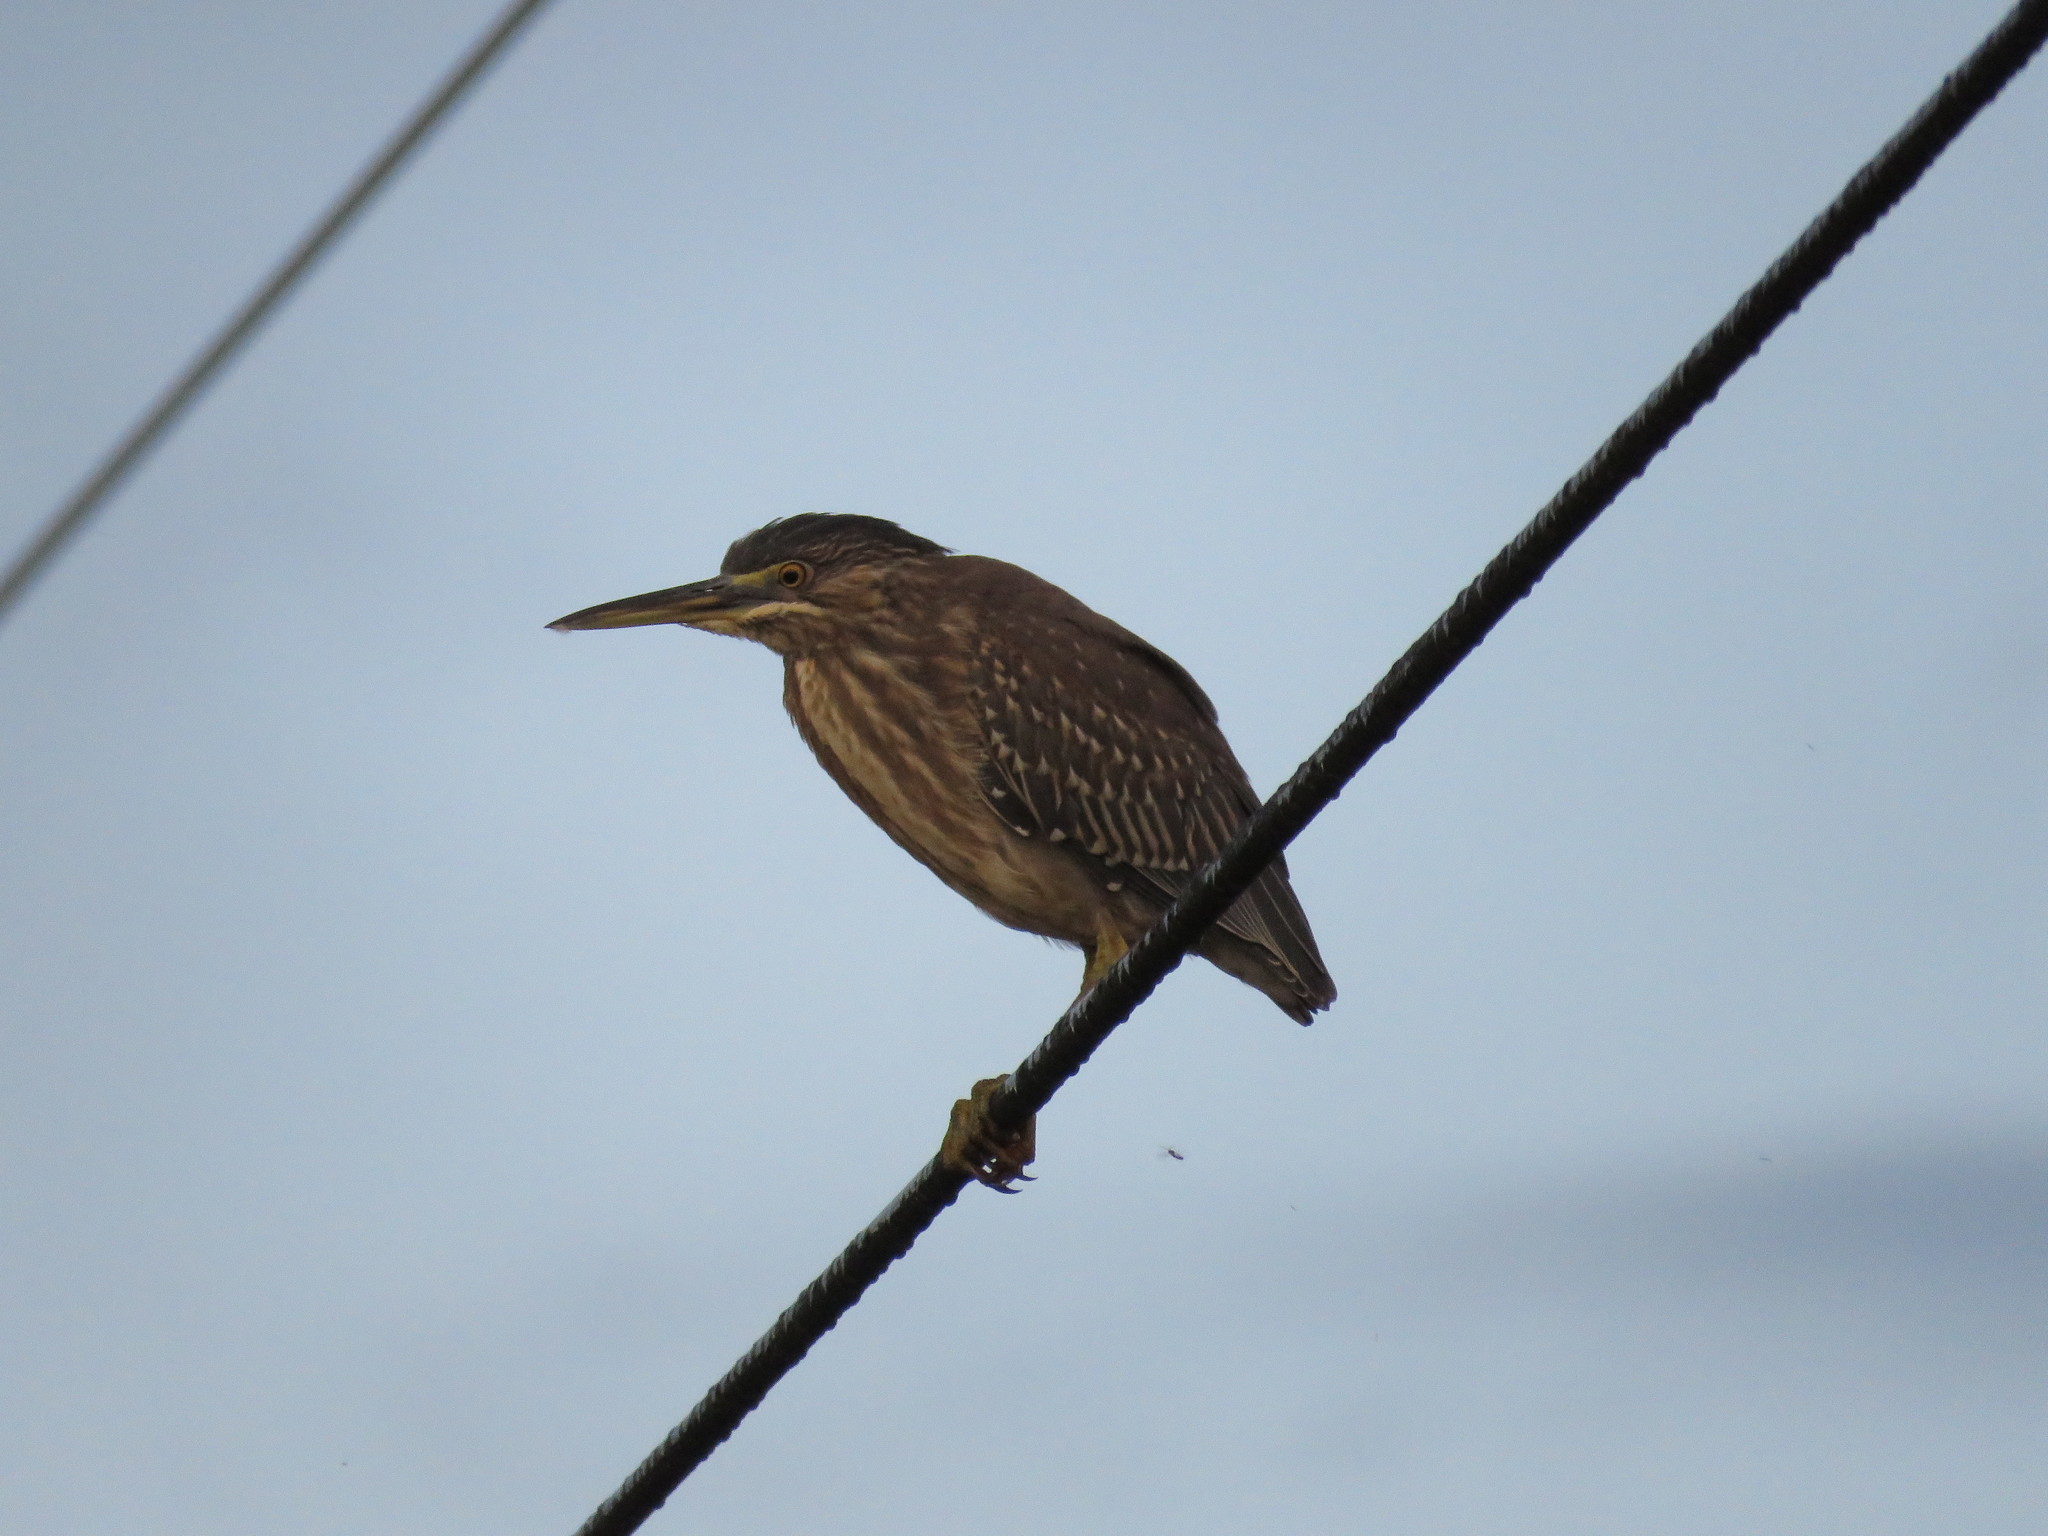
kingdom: Animalia
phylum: Chordata
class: Aves
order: Pelecaniformes
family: Ardeidae
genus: Butorides
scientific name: Butorides striata
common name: Striated heron
